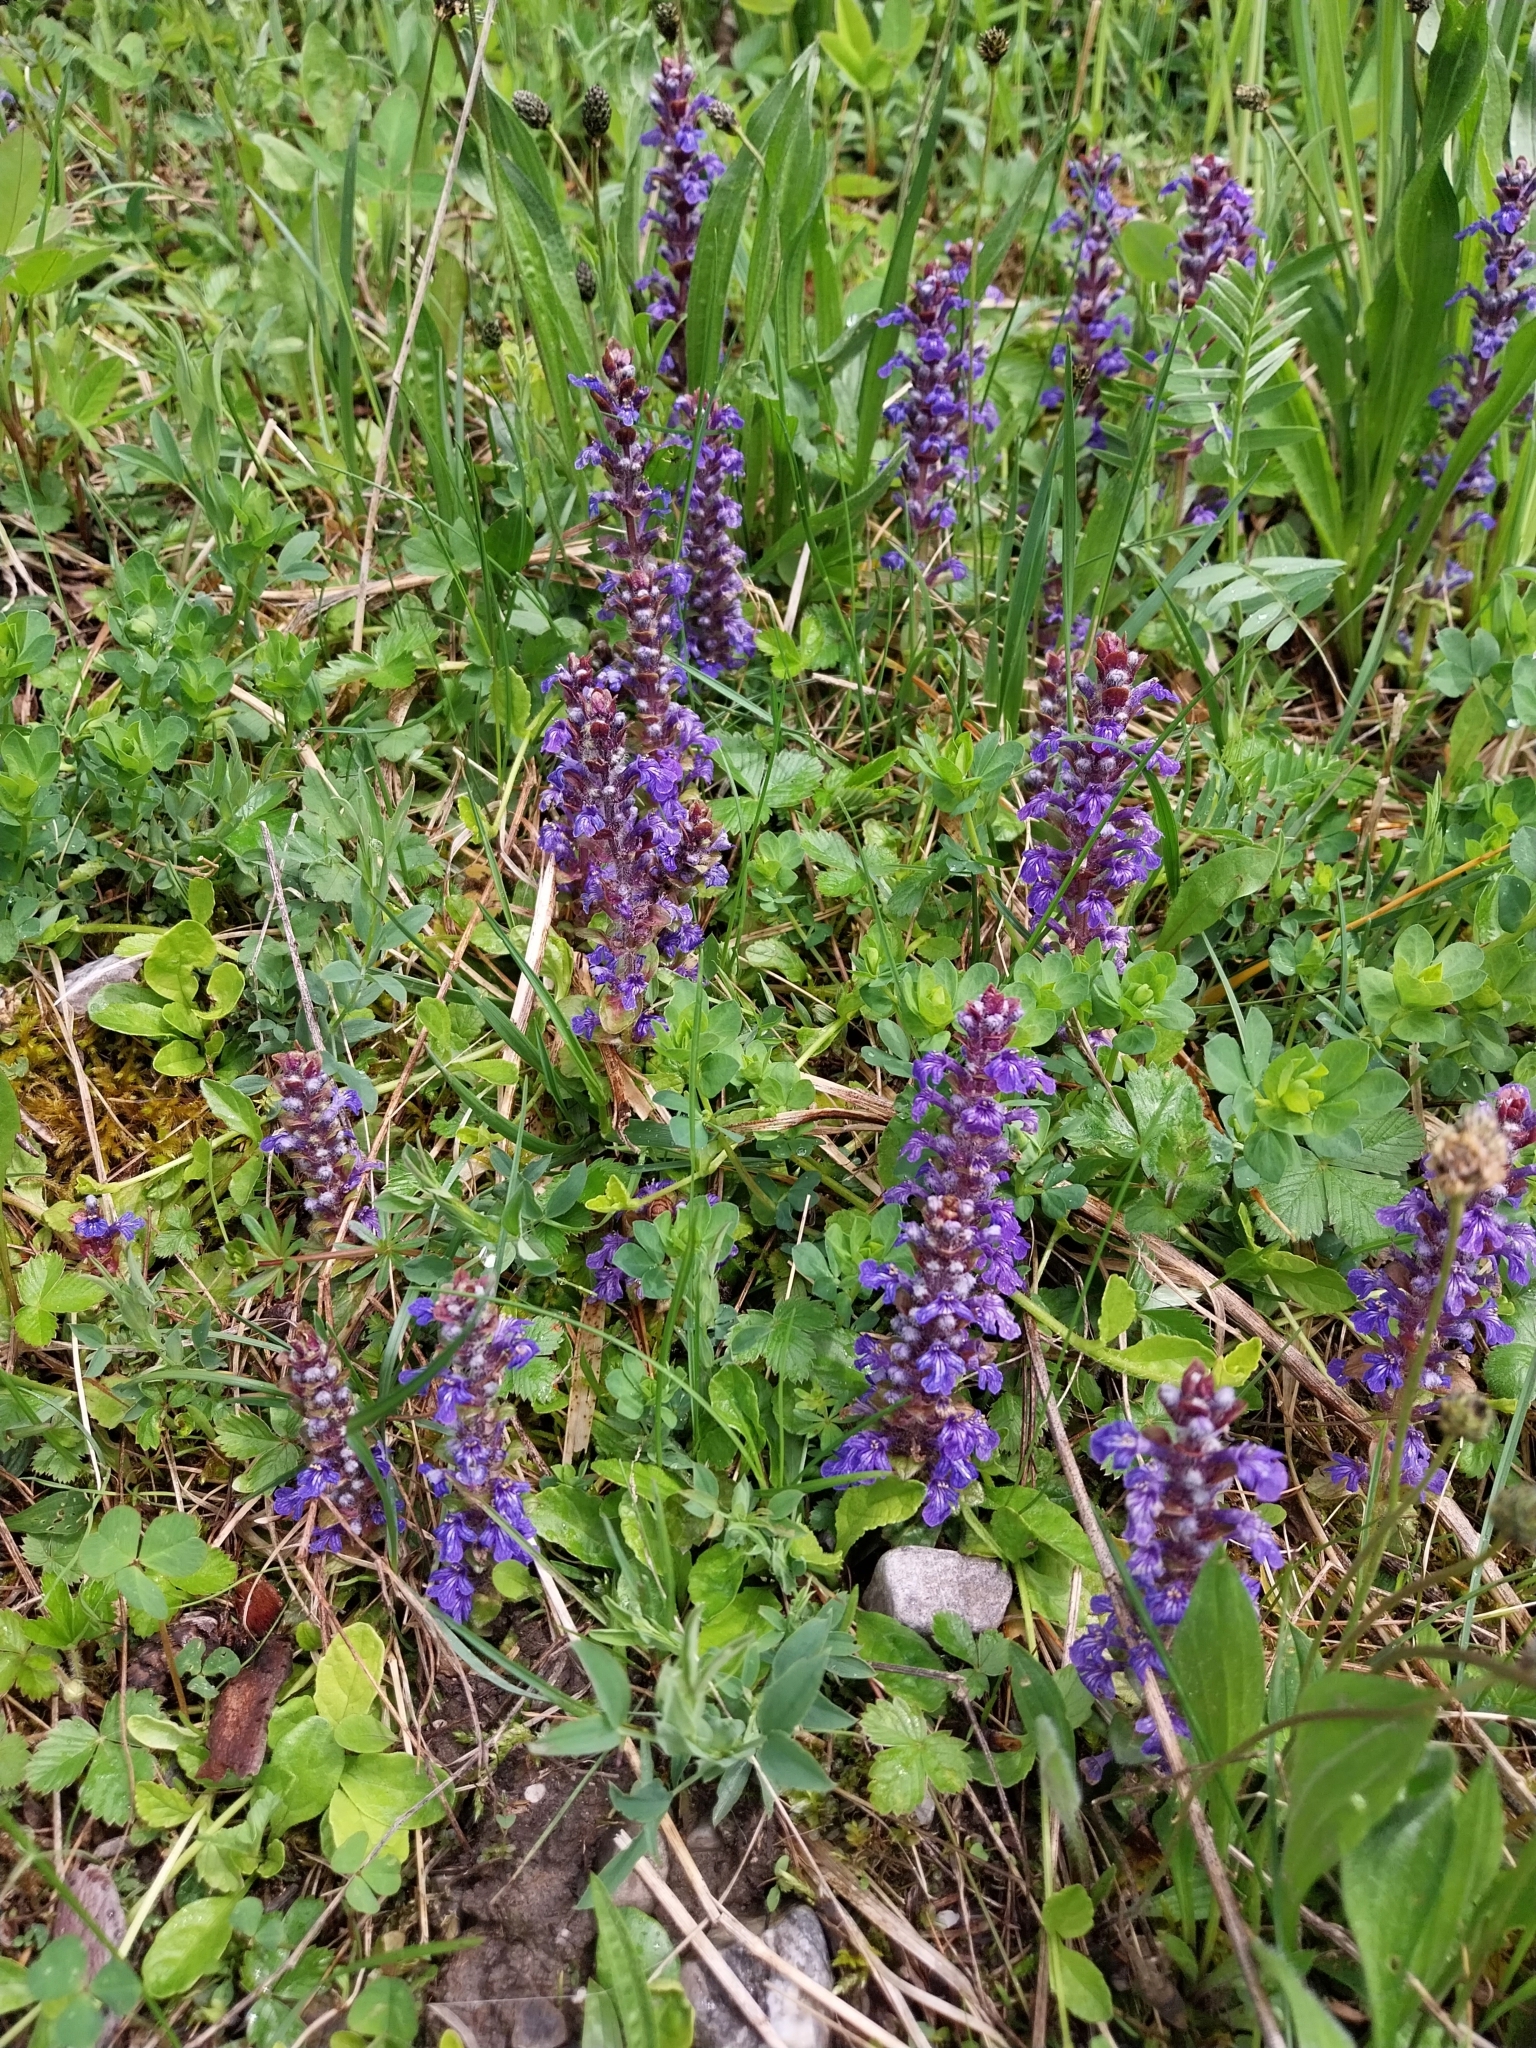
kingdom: Plantae
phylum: Tracheophyta
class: Magnoliopsida
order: Lamiales
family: Lamiaceae
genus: Ajuga
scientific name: Ajuga reptans
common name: Bugle
